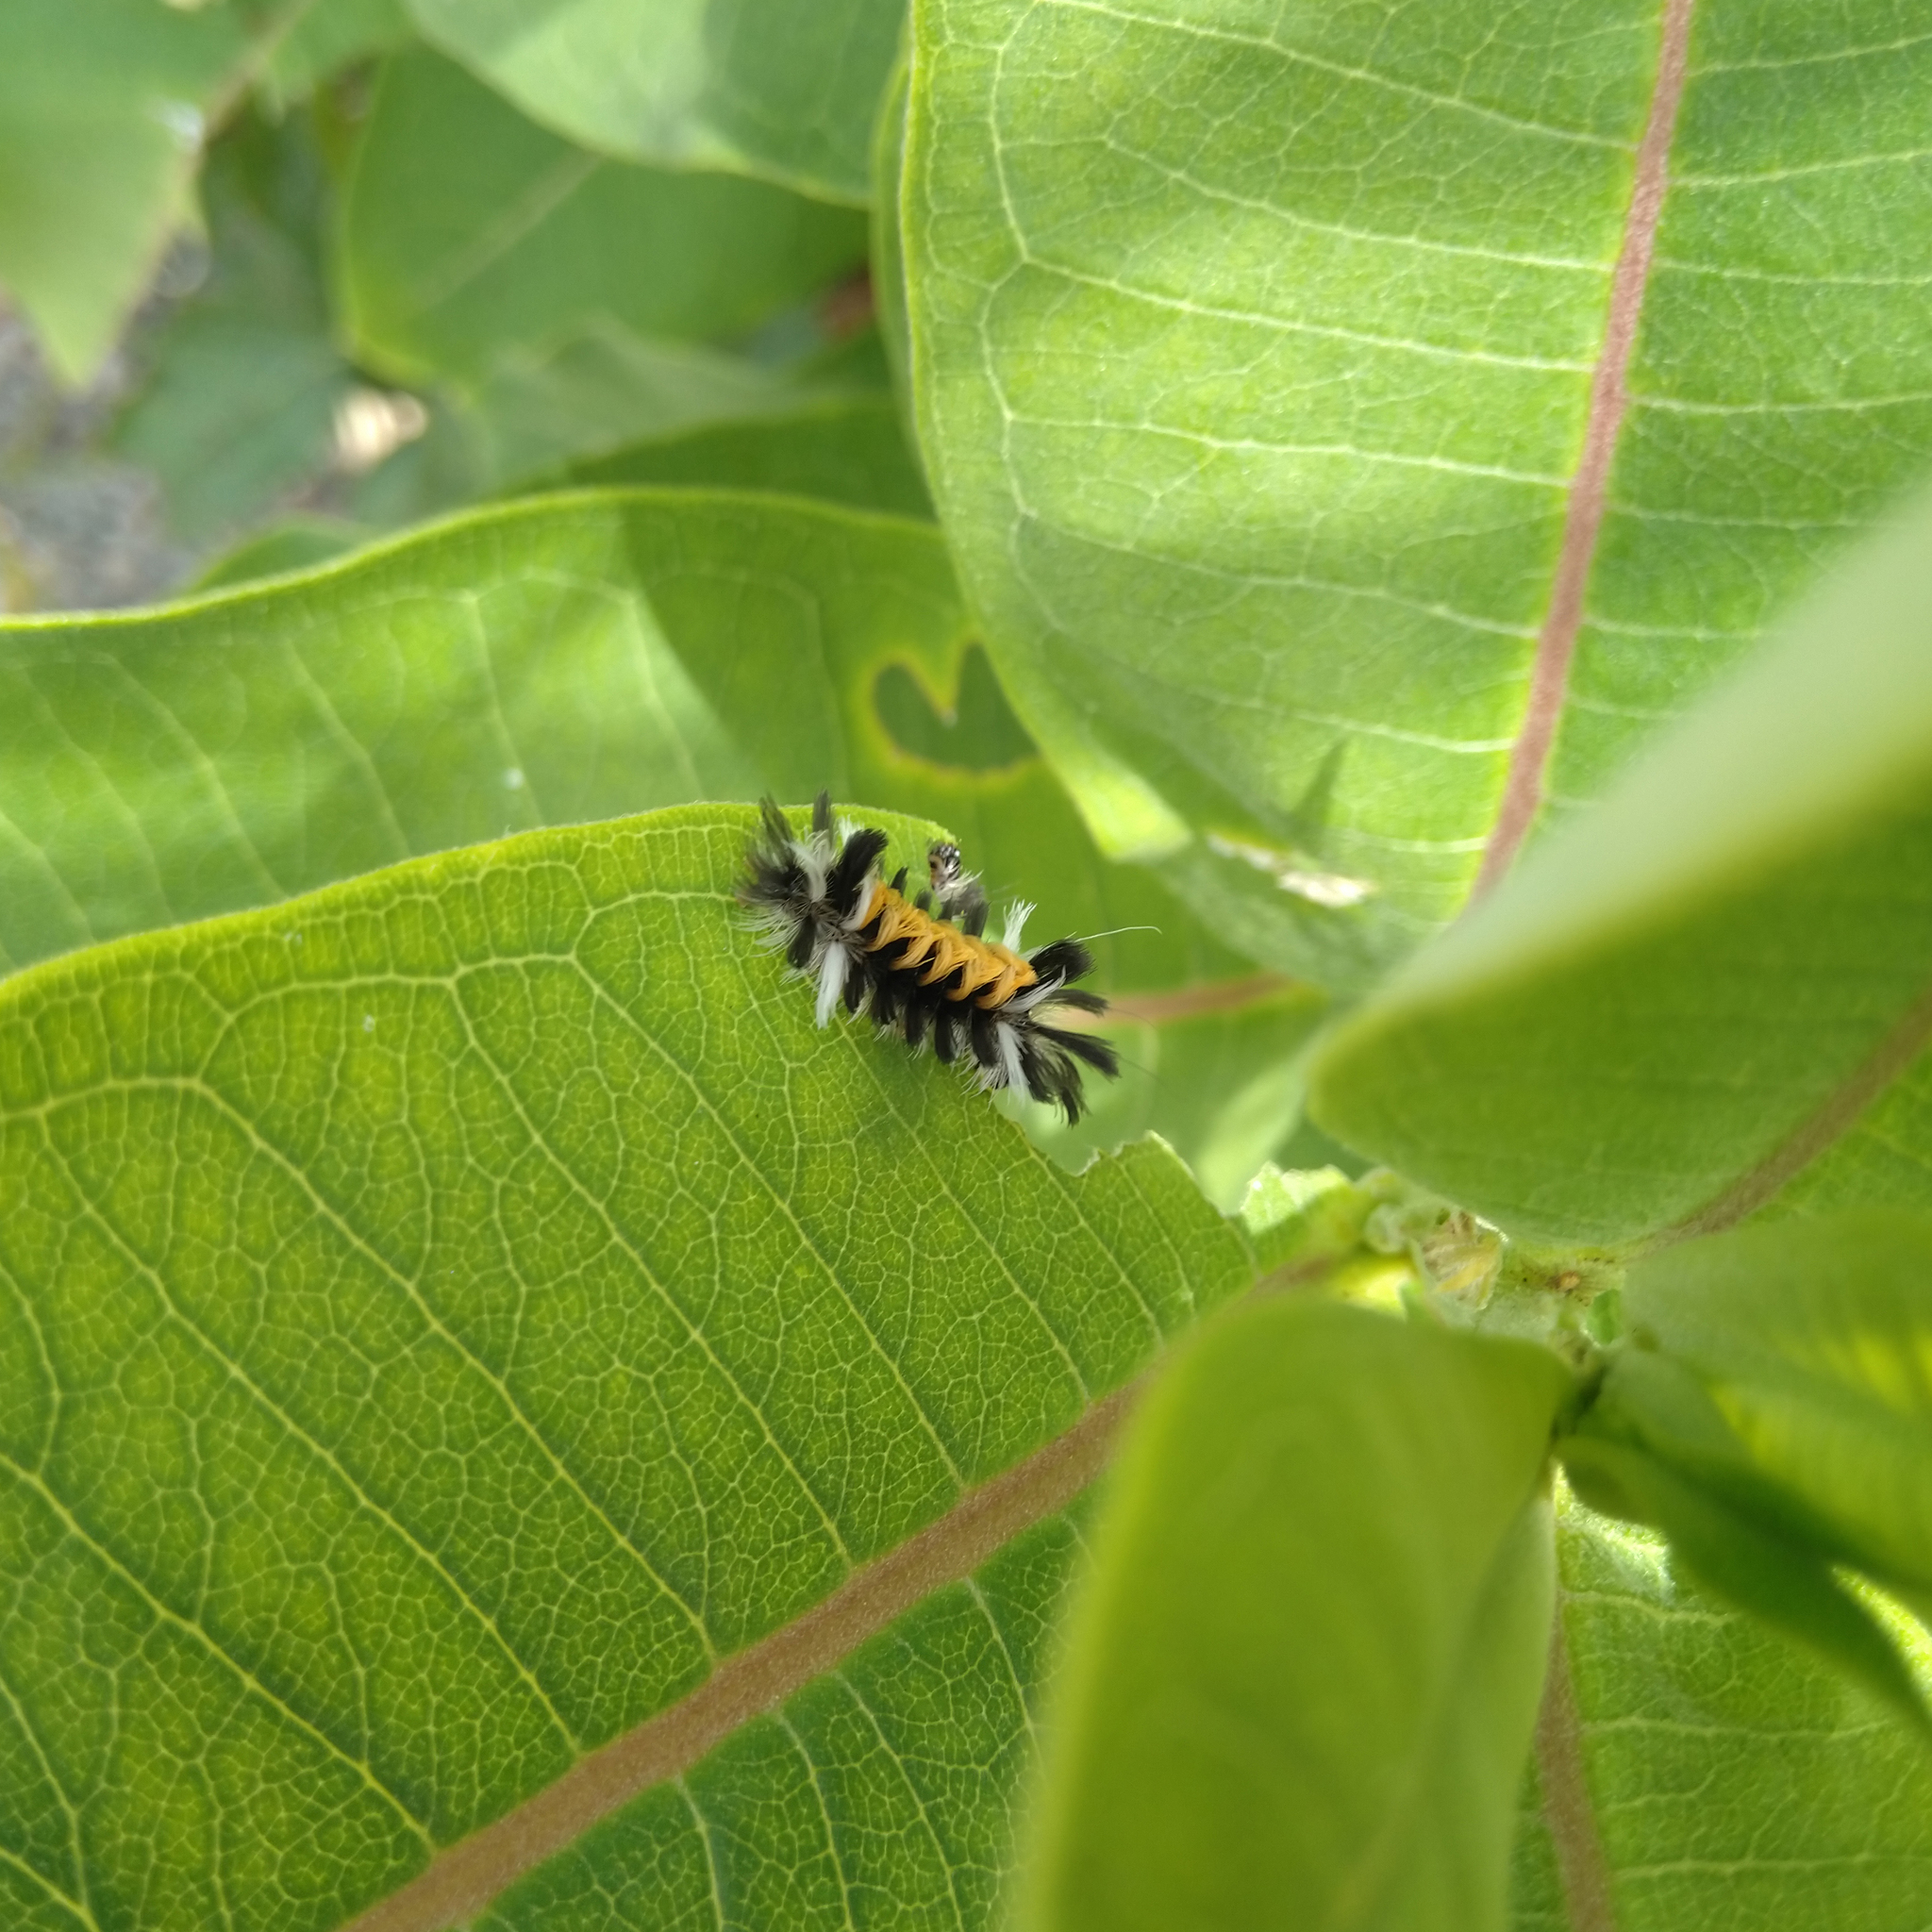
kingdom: Animalia
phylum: Arthropoda
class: Insecta
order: Lepidoptera
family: Erebidae
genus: Euchaetes
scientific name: Euchaetes egle
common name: Milkweed tussock moth
